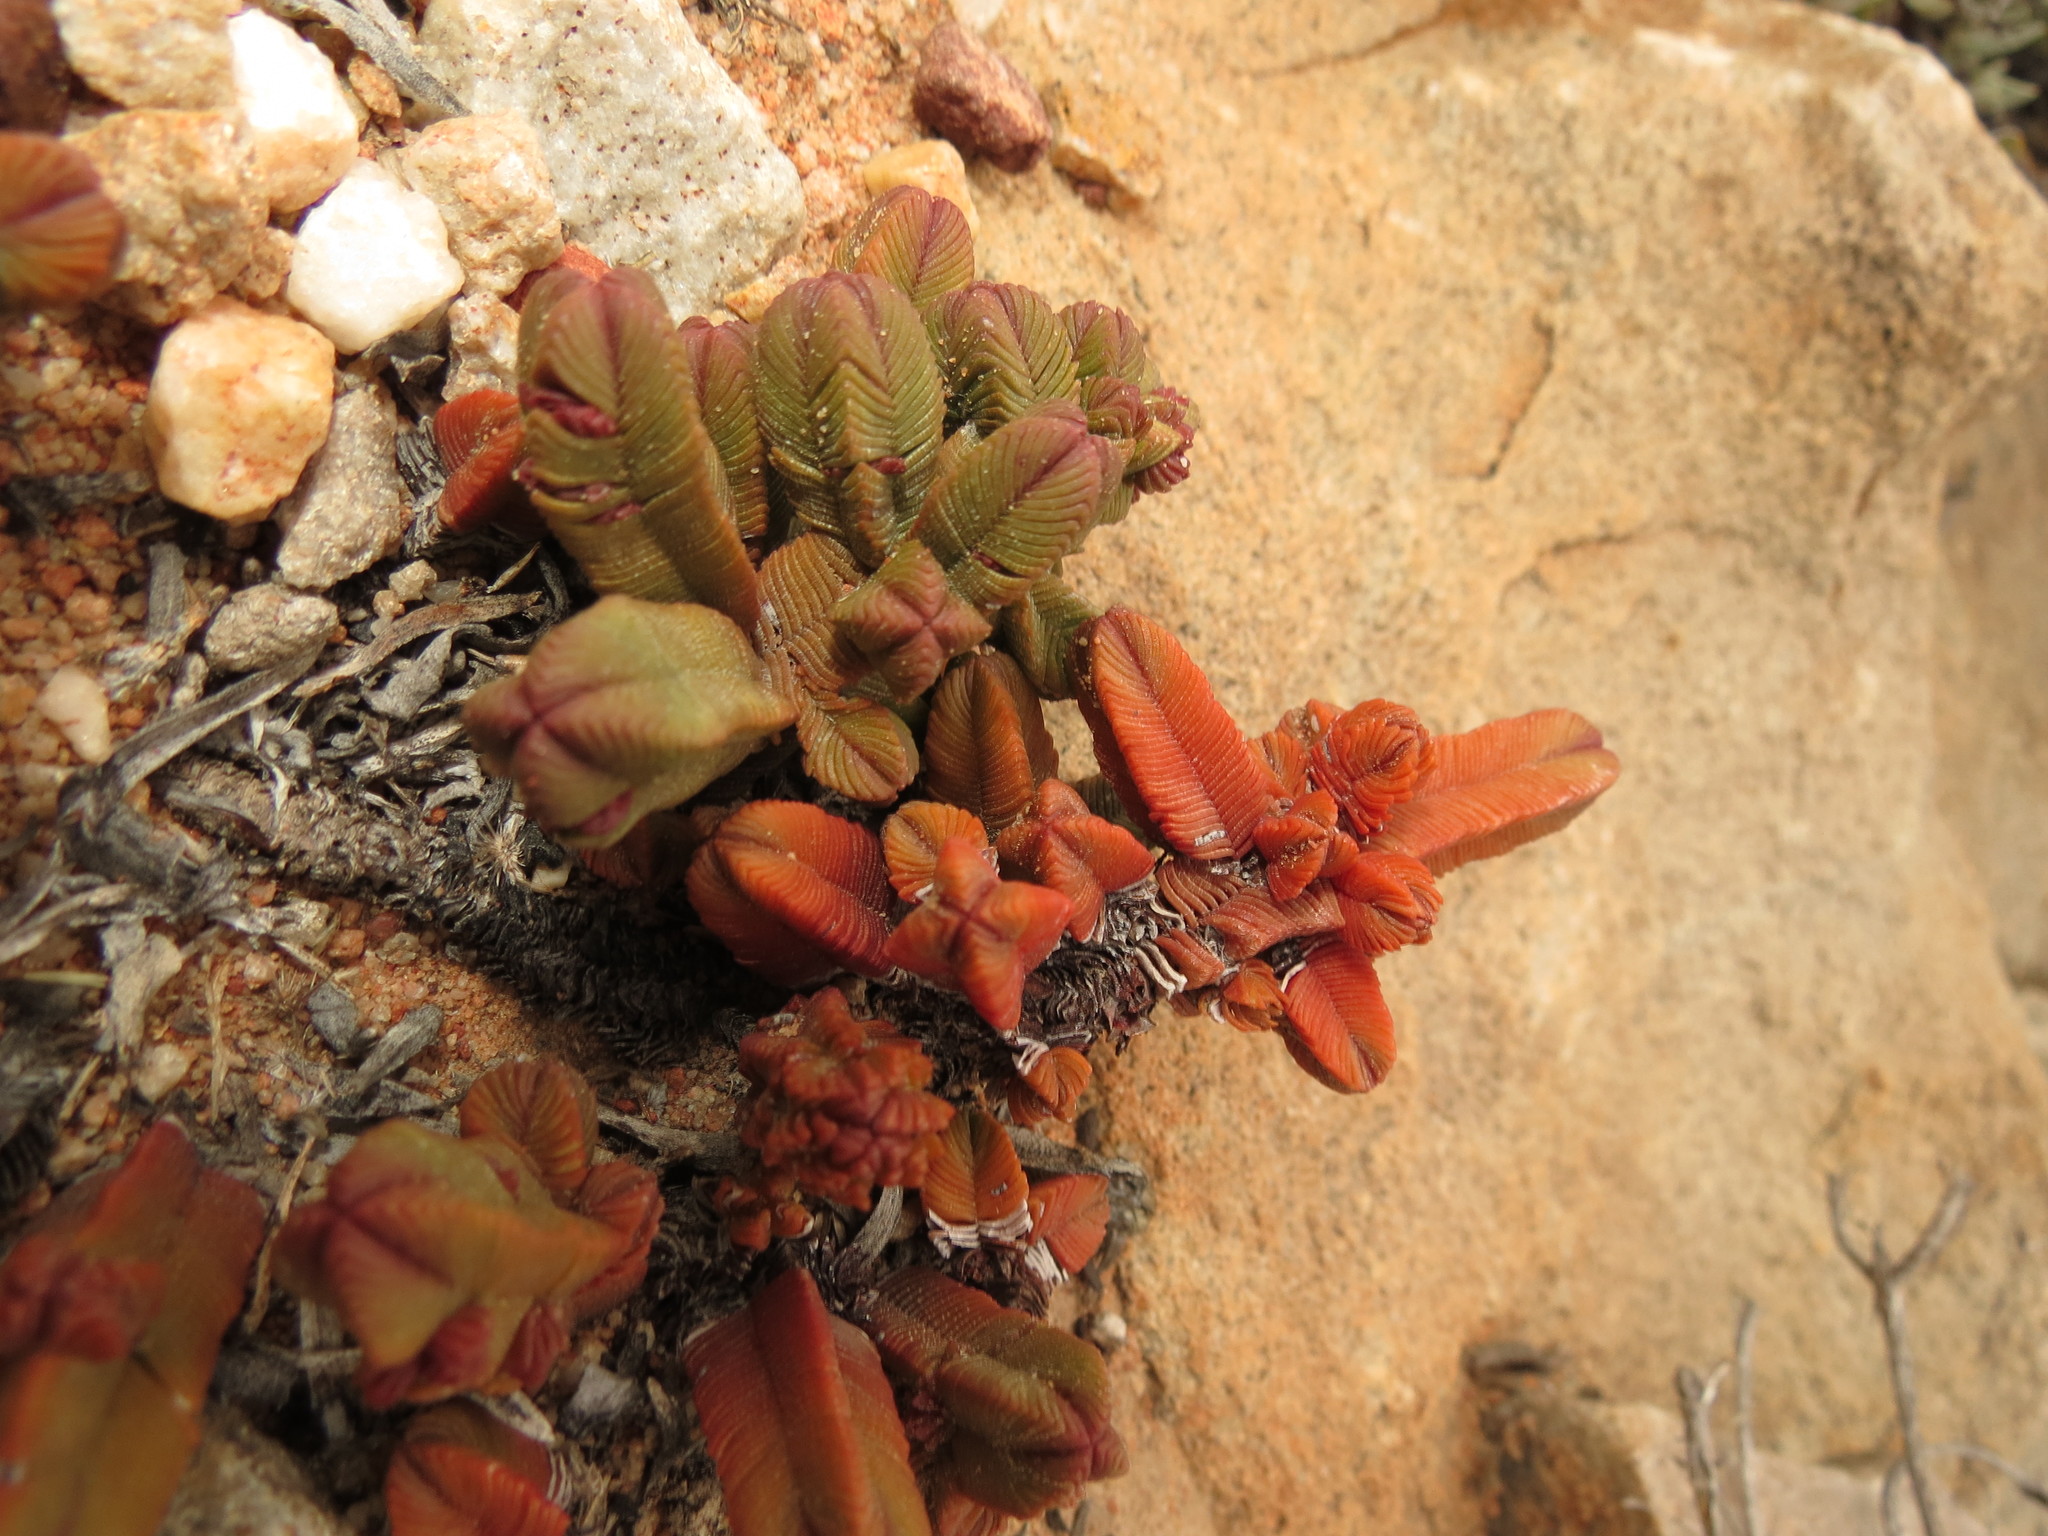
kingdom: Plantae
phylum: Tracheophyta
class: Magnoliopsida
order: Saxifragales
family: Crassulaceae
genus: Crassula
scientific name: Crassula pyramidalis
